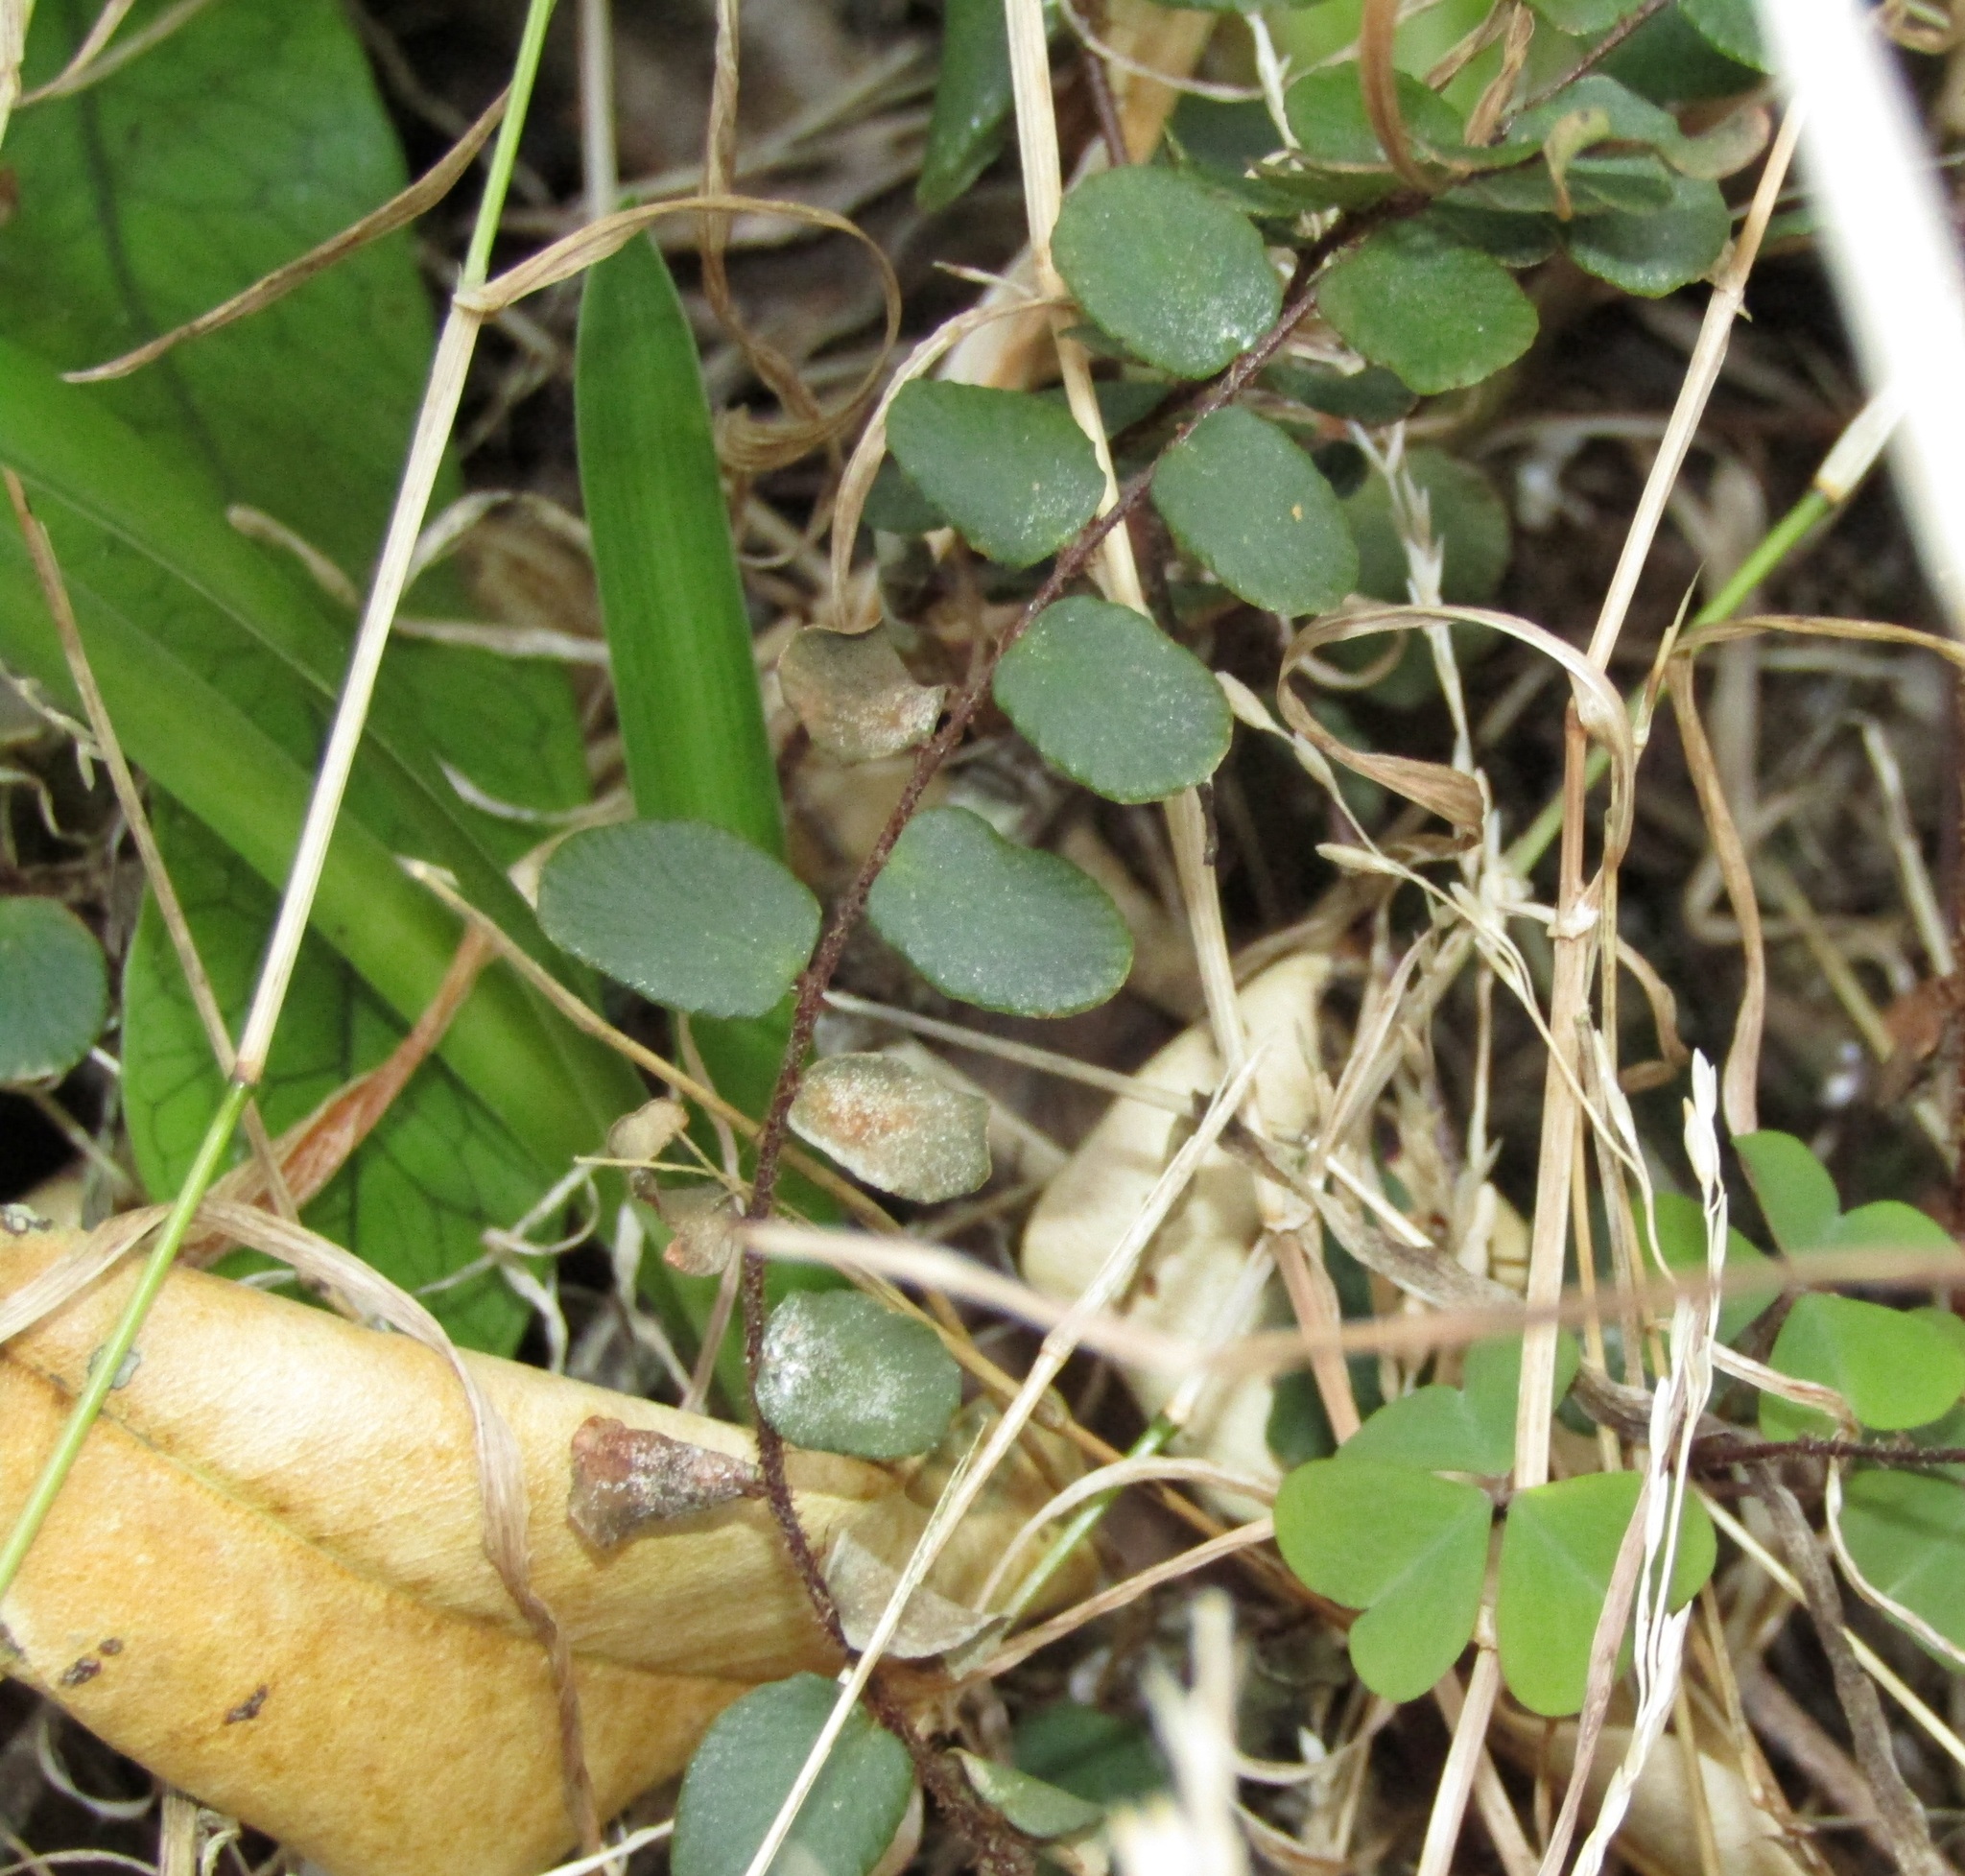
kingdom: Plantae
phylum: Tracheophyta
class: Polypodiopsida
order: Polypodiales
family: Pteridaceae
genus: Pellaea
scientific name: Pellaea rotundifolia
